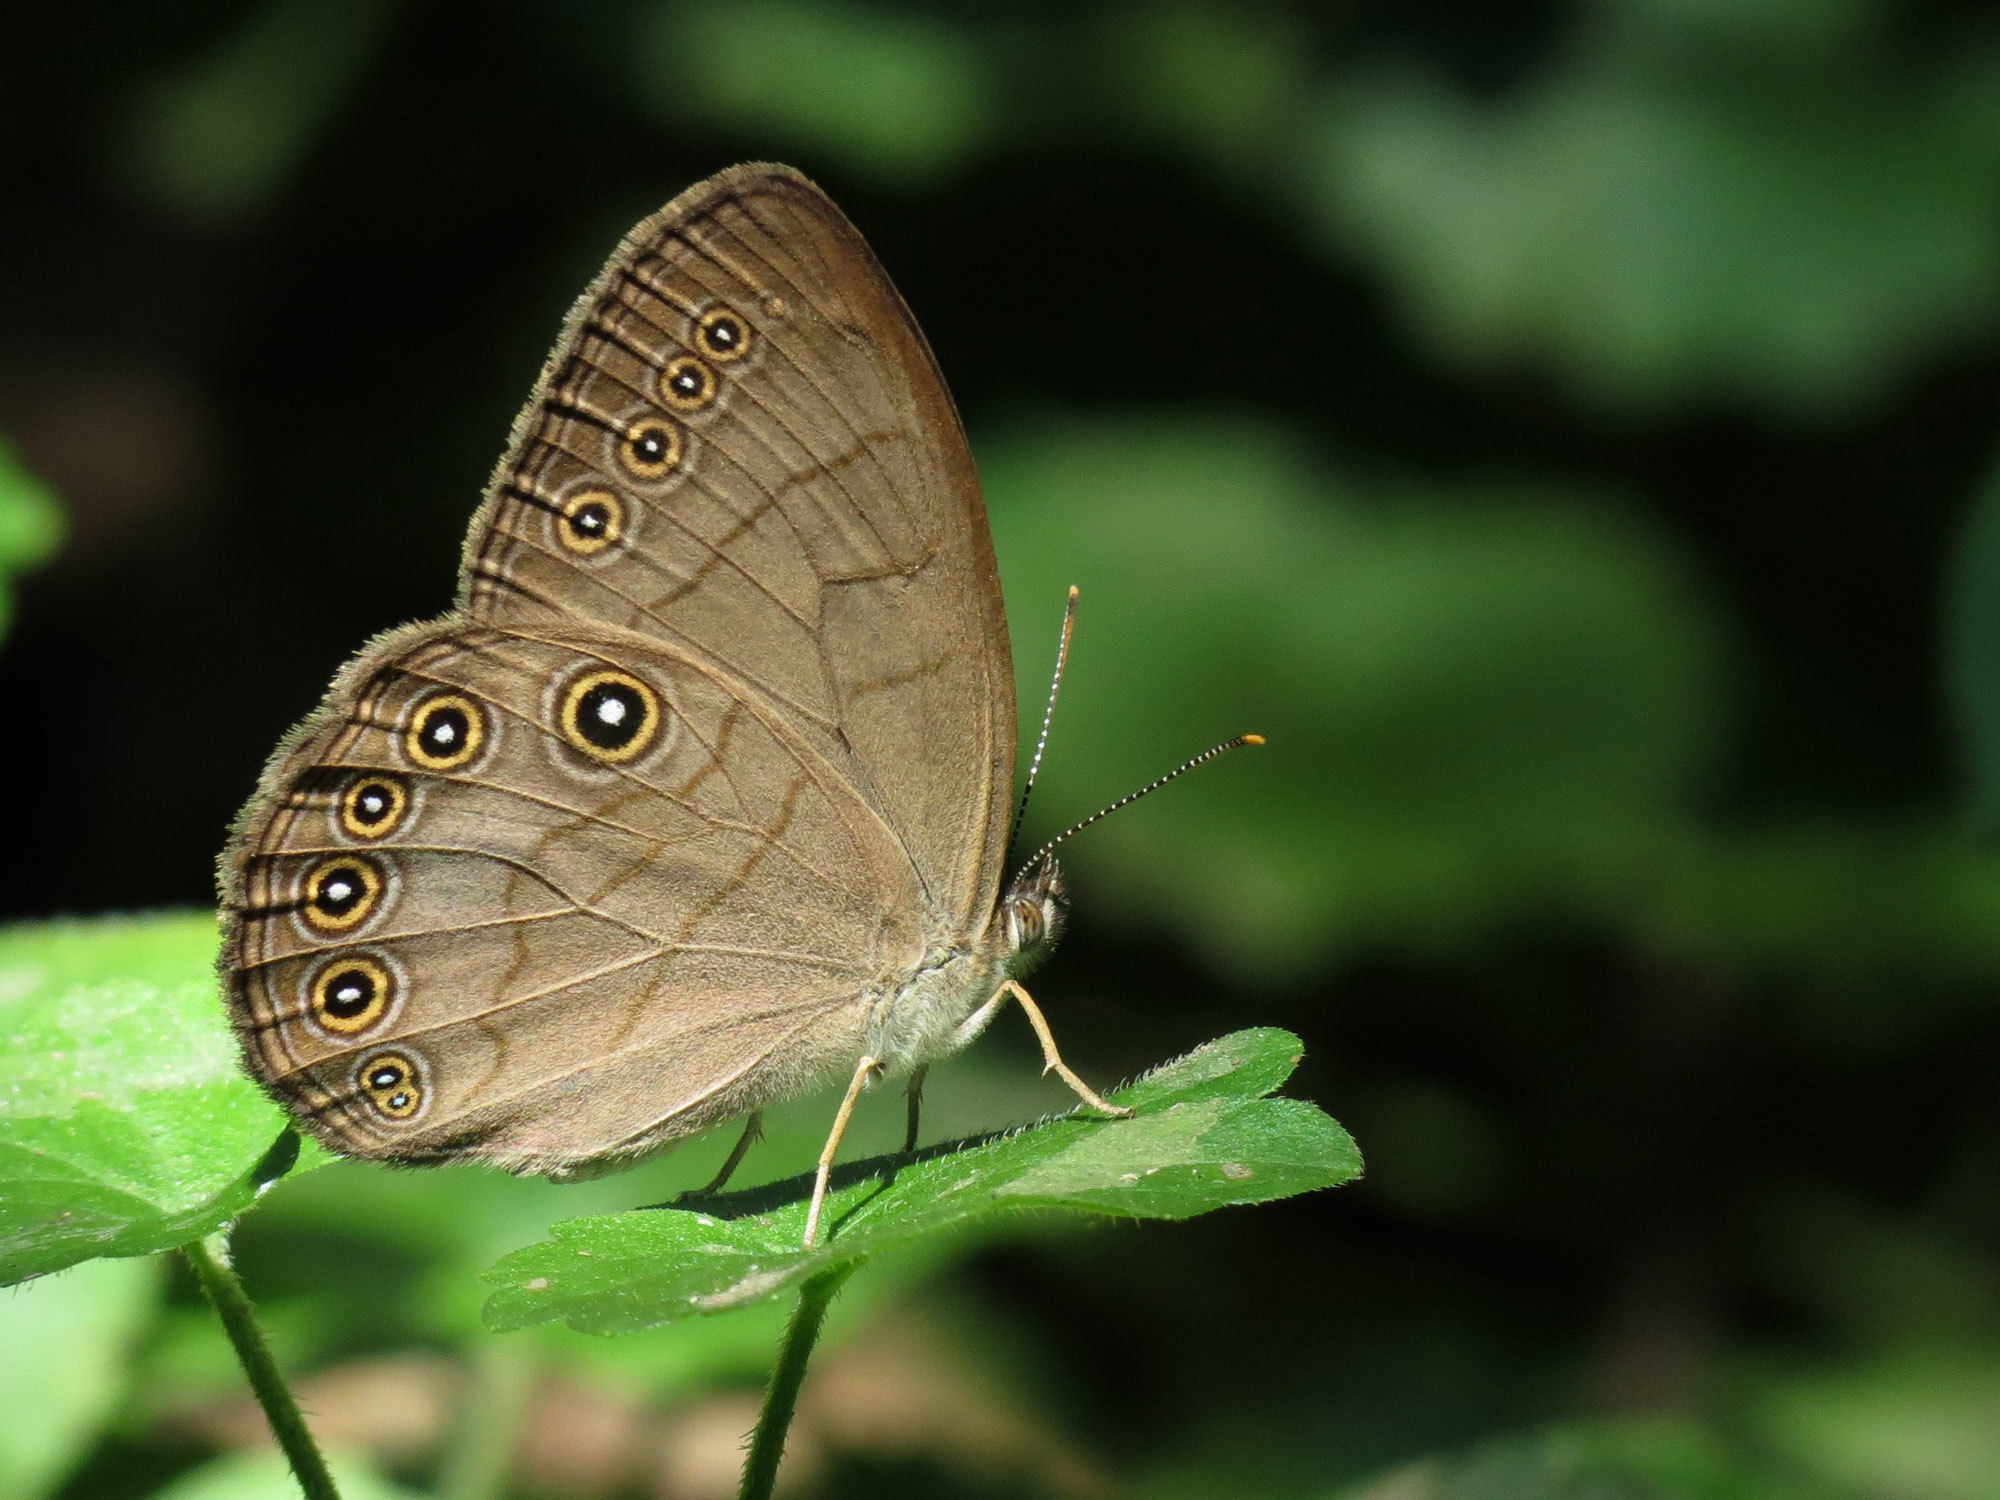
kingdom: Animalia
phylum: Arthropoda
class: Insecta
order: Lepidoptera
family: Nymphalidae
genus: Lethe
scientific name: Lethe eurydice
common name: Eyed brown
